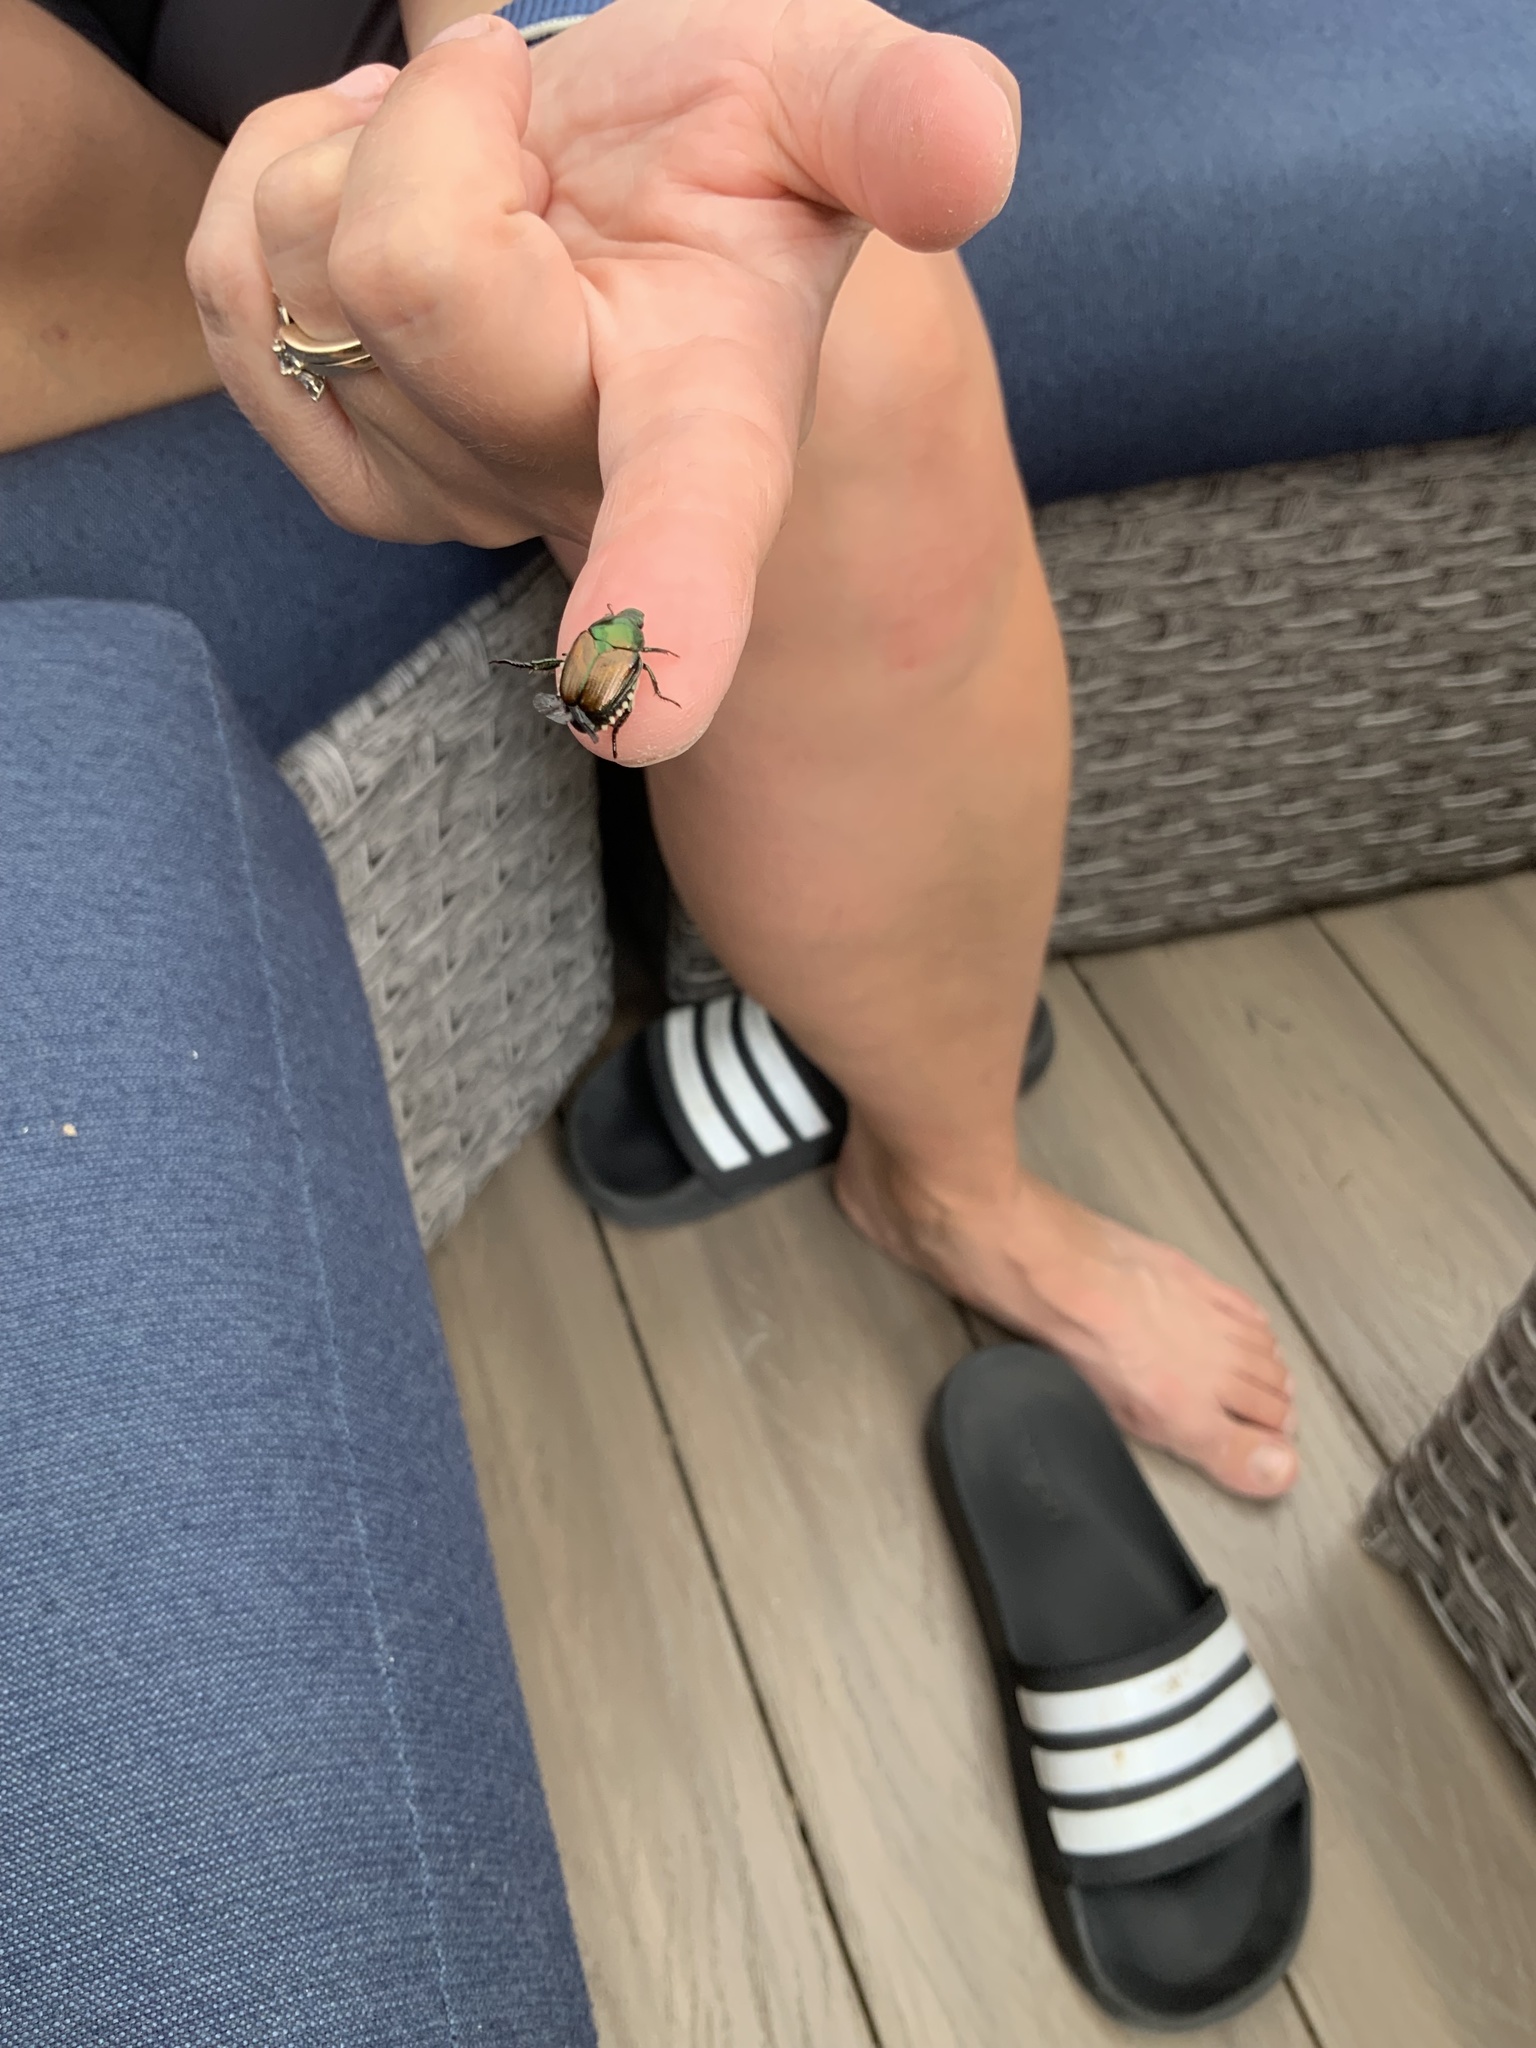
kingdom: Animalia
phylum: Arthropoda
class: Insecta
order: Coleoptera
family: Scarabaeidae
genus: Popillia
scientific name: Popillia japonica
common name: Japanese beetle
